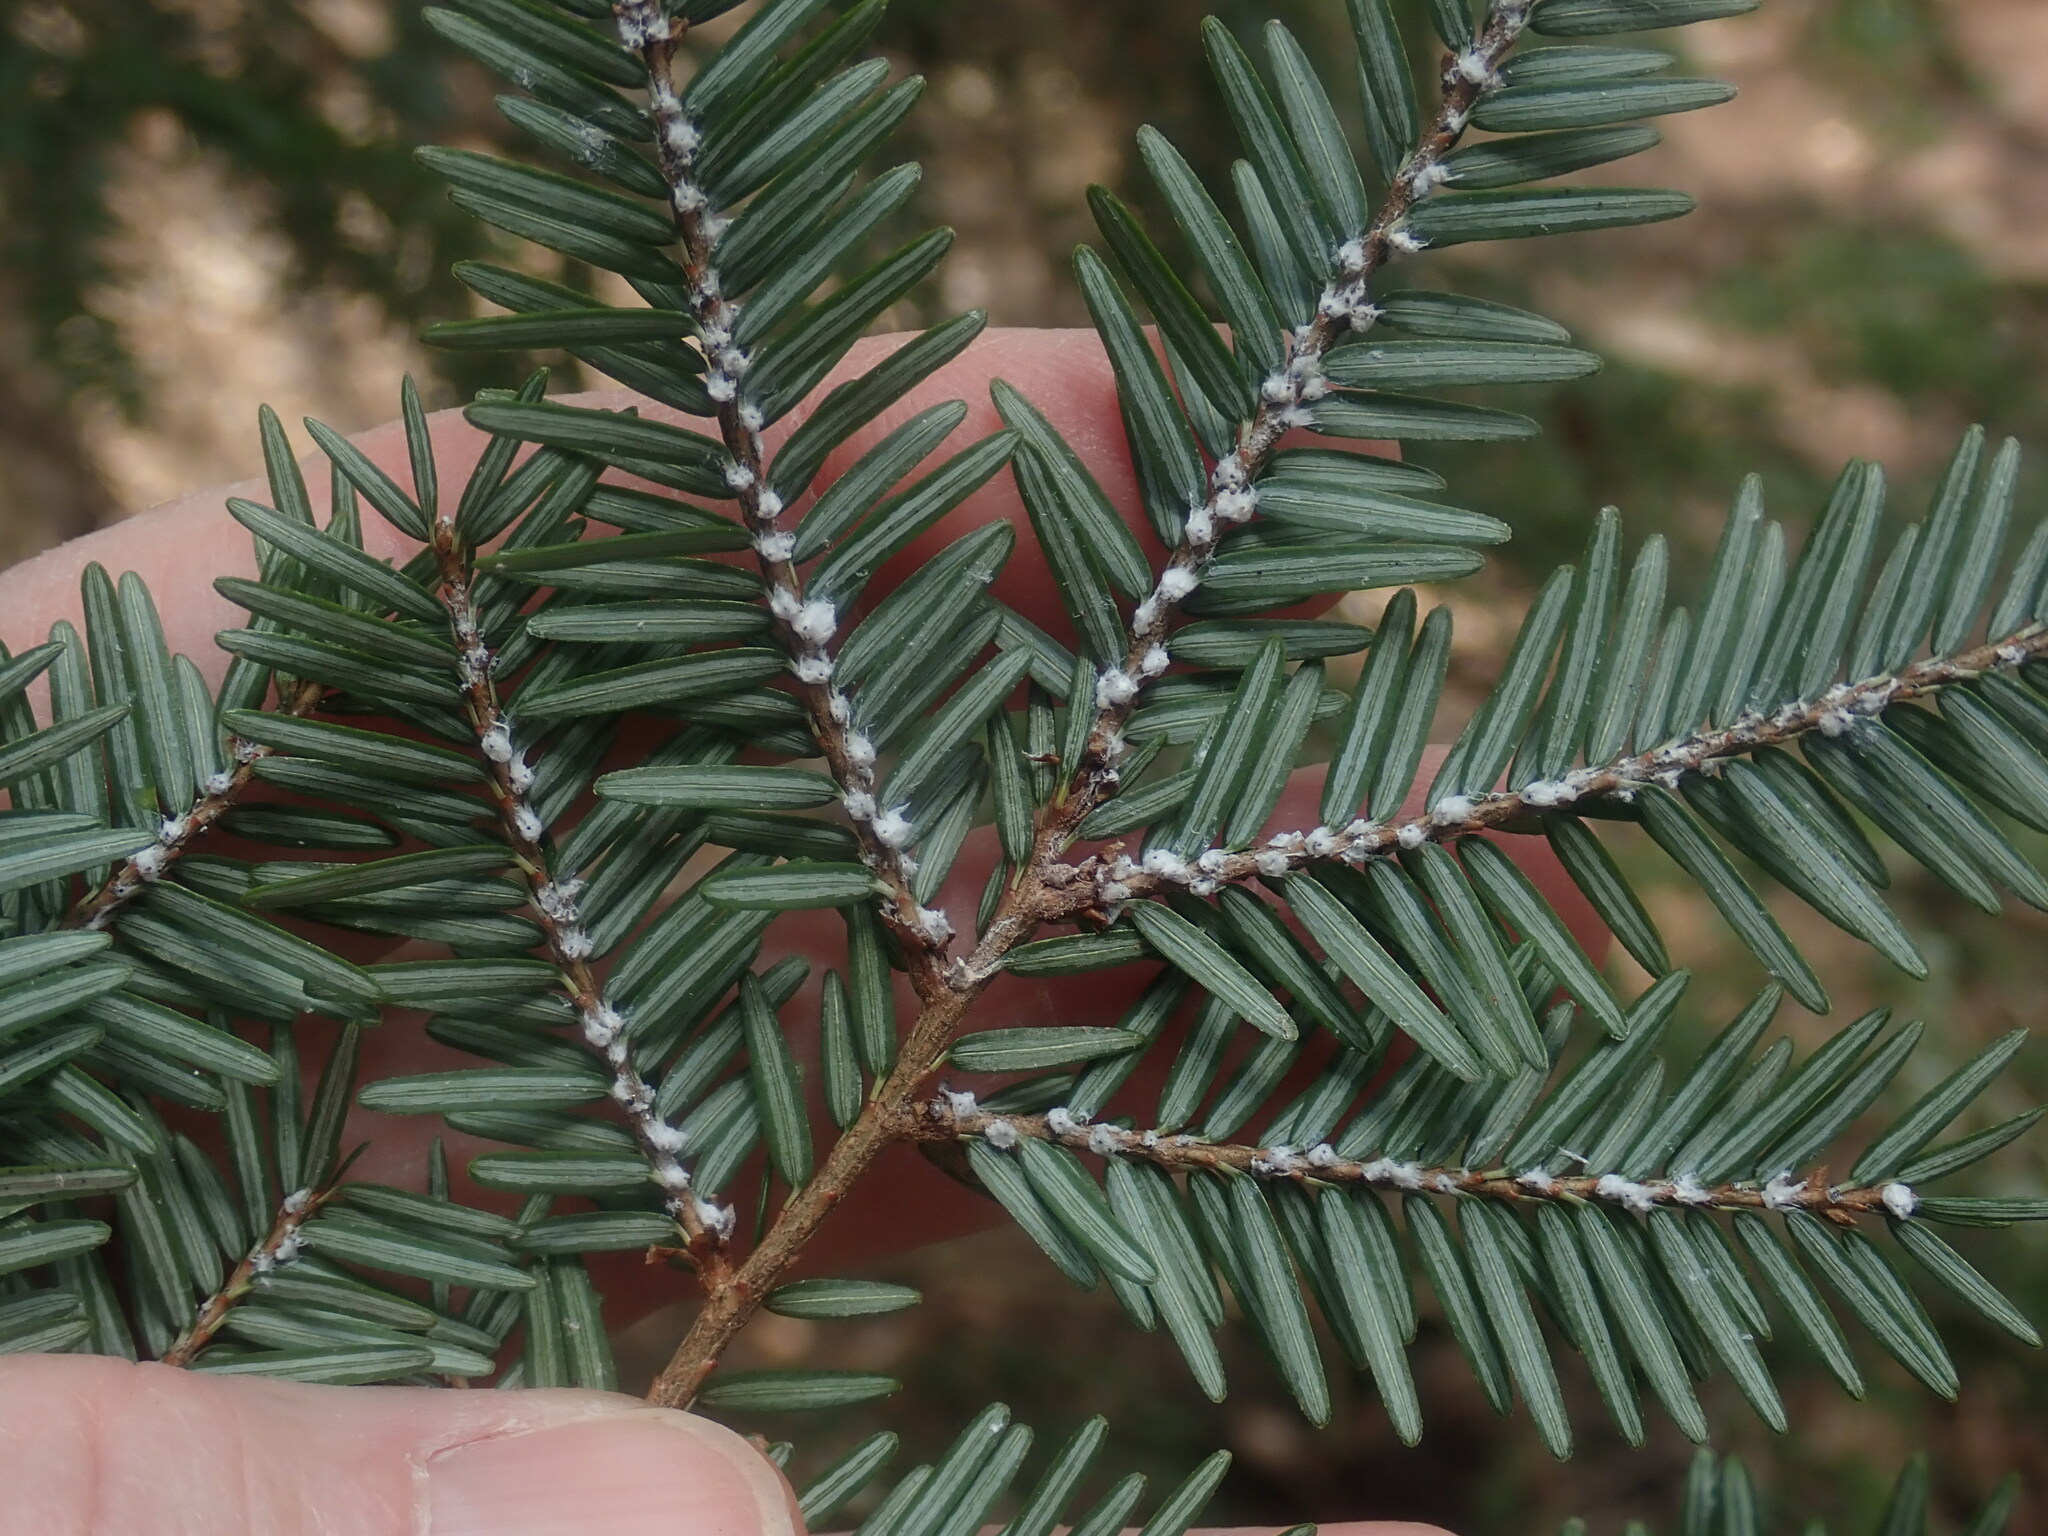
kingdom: Animalia
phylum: Arthropoda
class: Insecta
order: Hemiptera
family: Adelgidae
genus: Adelges
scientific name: Adelges tsugae
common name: Hemlock woolly adelgid
